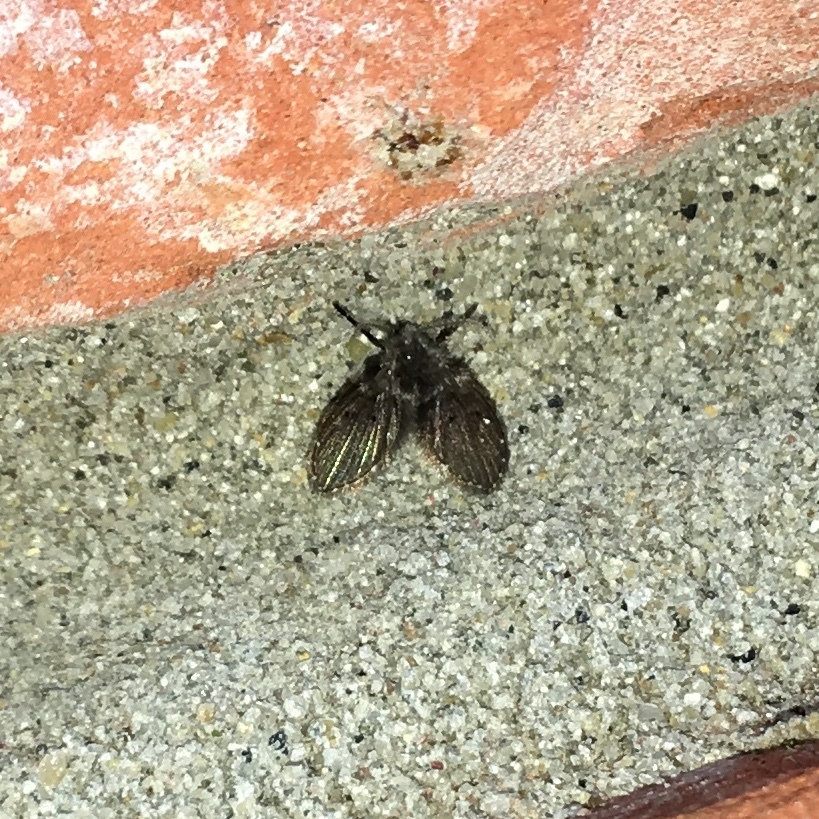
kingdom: Animalia
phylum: Arthropoda
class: Insecta
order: Diptera
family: Psychodidae
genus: Clogmia
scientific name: Clogmia albipunctatus
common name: White-spotted moth fly
